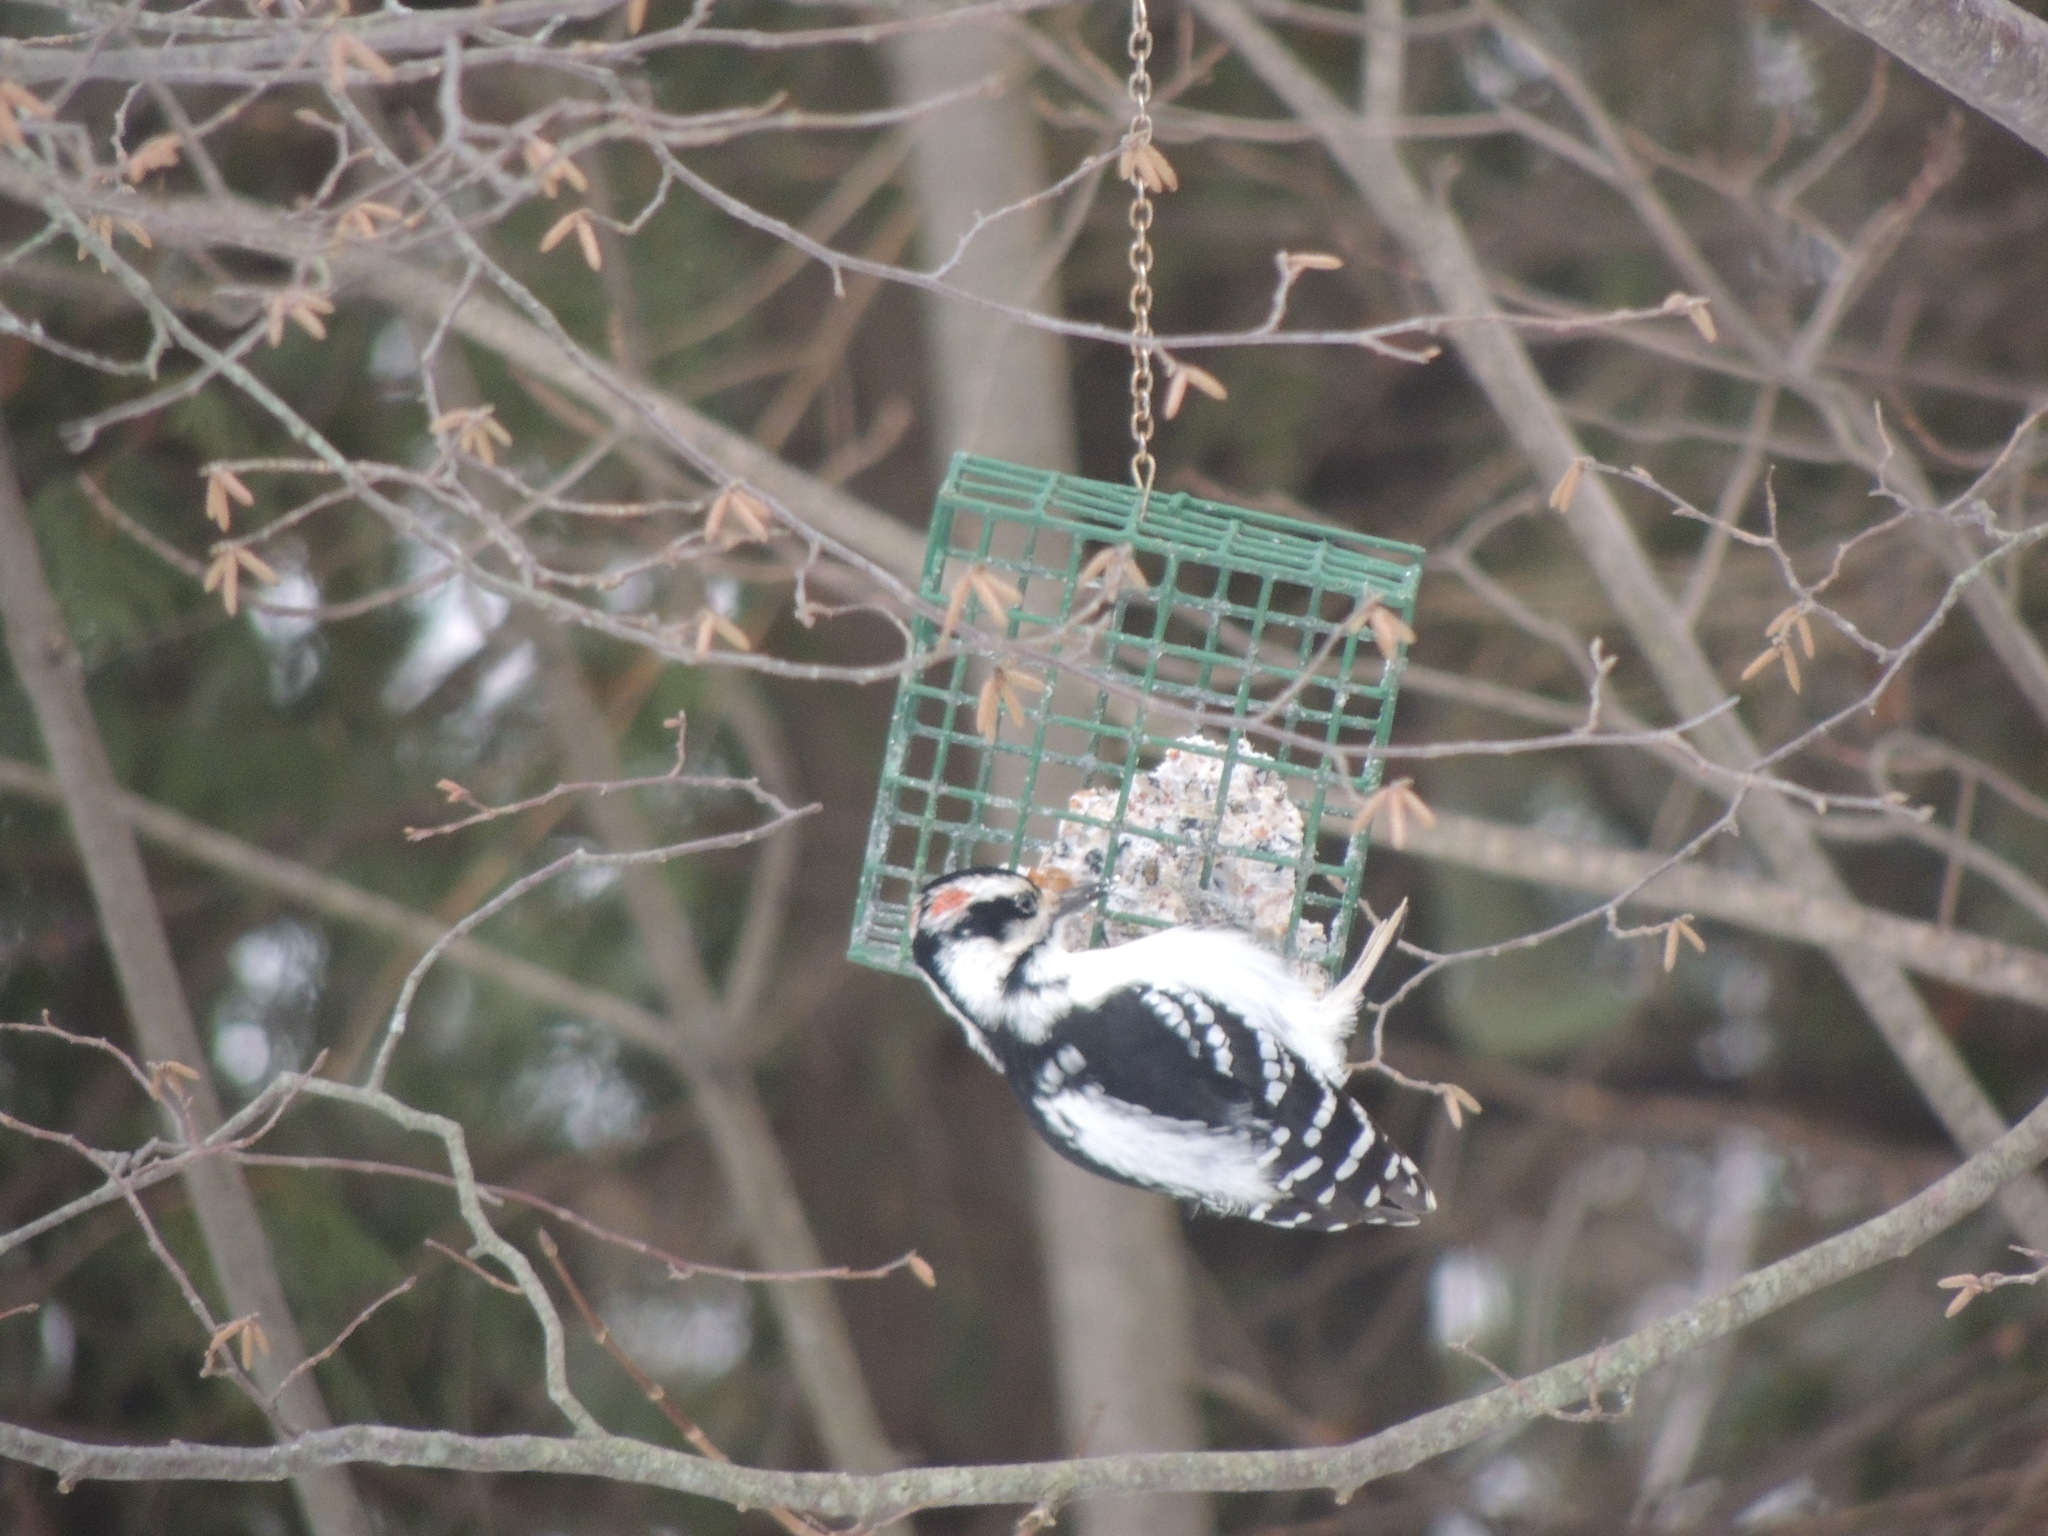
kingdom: Animalia
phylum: Chordata
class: Aves
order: Piciformes
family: Picidae
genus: Leuconotopicus
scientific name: Leuconotopicus villosus
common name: Hairy woodpecker
